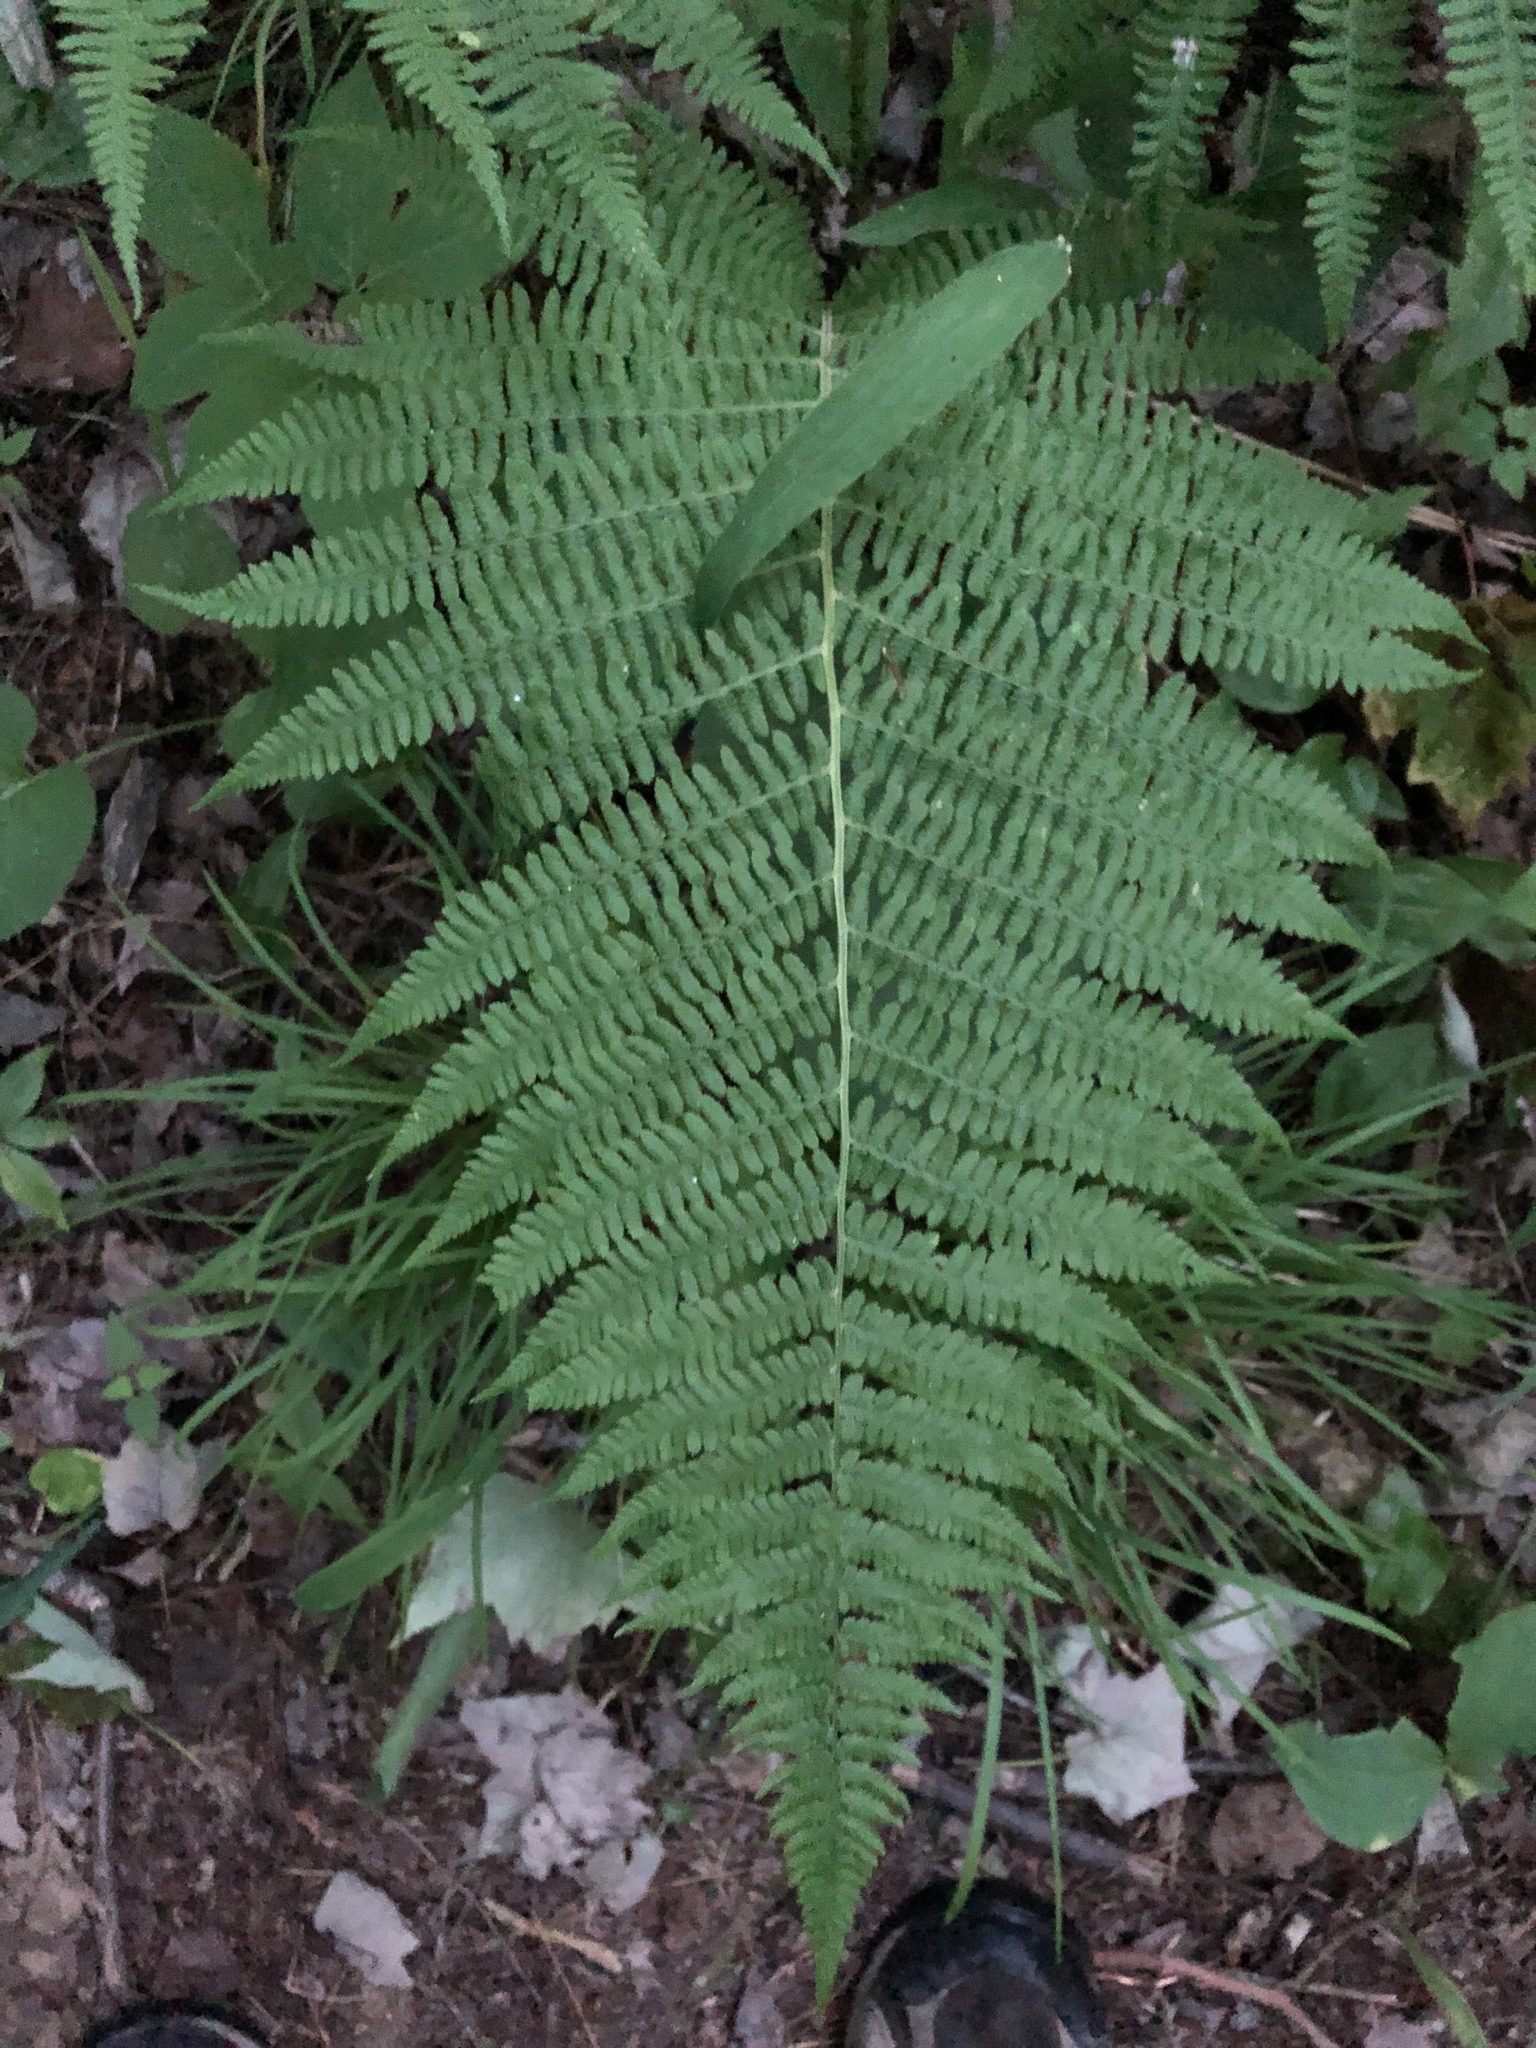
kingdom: Plantae
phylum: Tracheophyta
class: Polypodiopsida
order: Polypodiales
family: Athyriaceae
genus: Athyrium
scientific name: Athyrium angustum
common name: Northern lady fern
